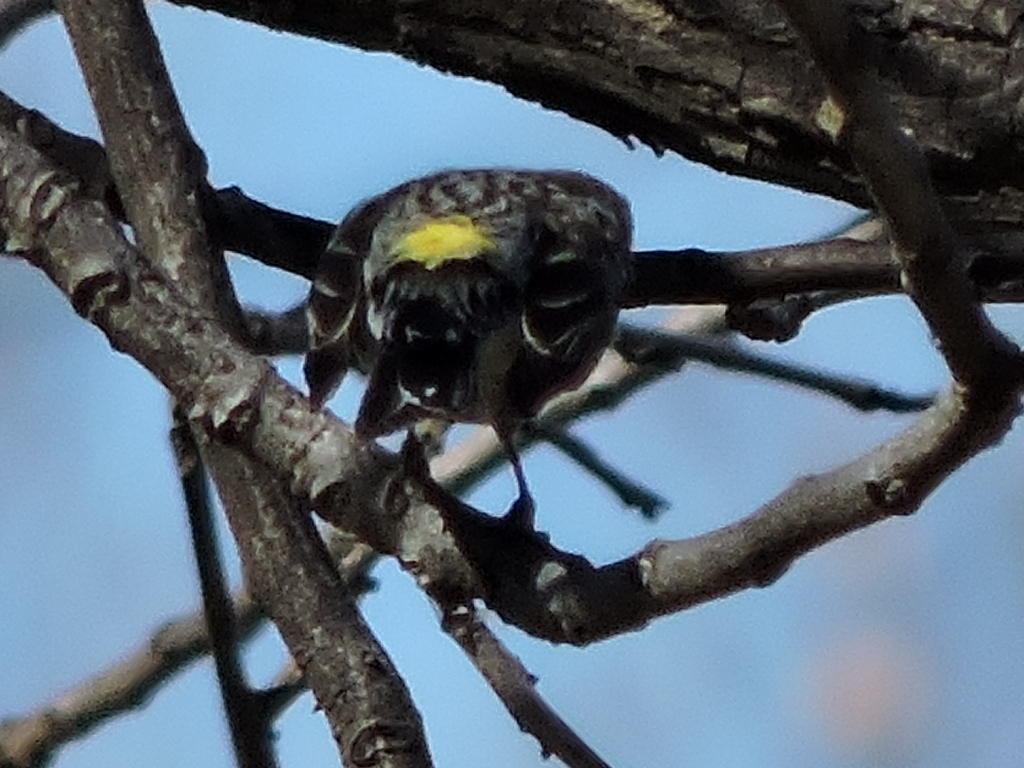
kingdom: Animalia
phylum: Chordata
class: Aves
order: Passeriformes
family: Parulidae
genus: Setophaga
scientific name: Setophaga coronata
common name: Myrtle warbler
